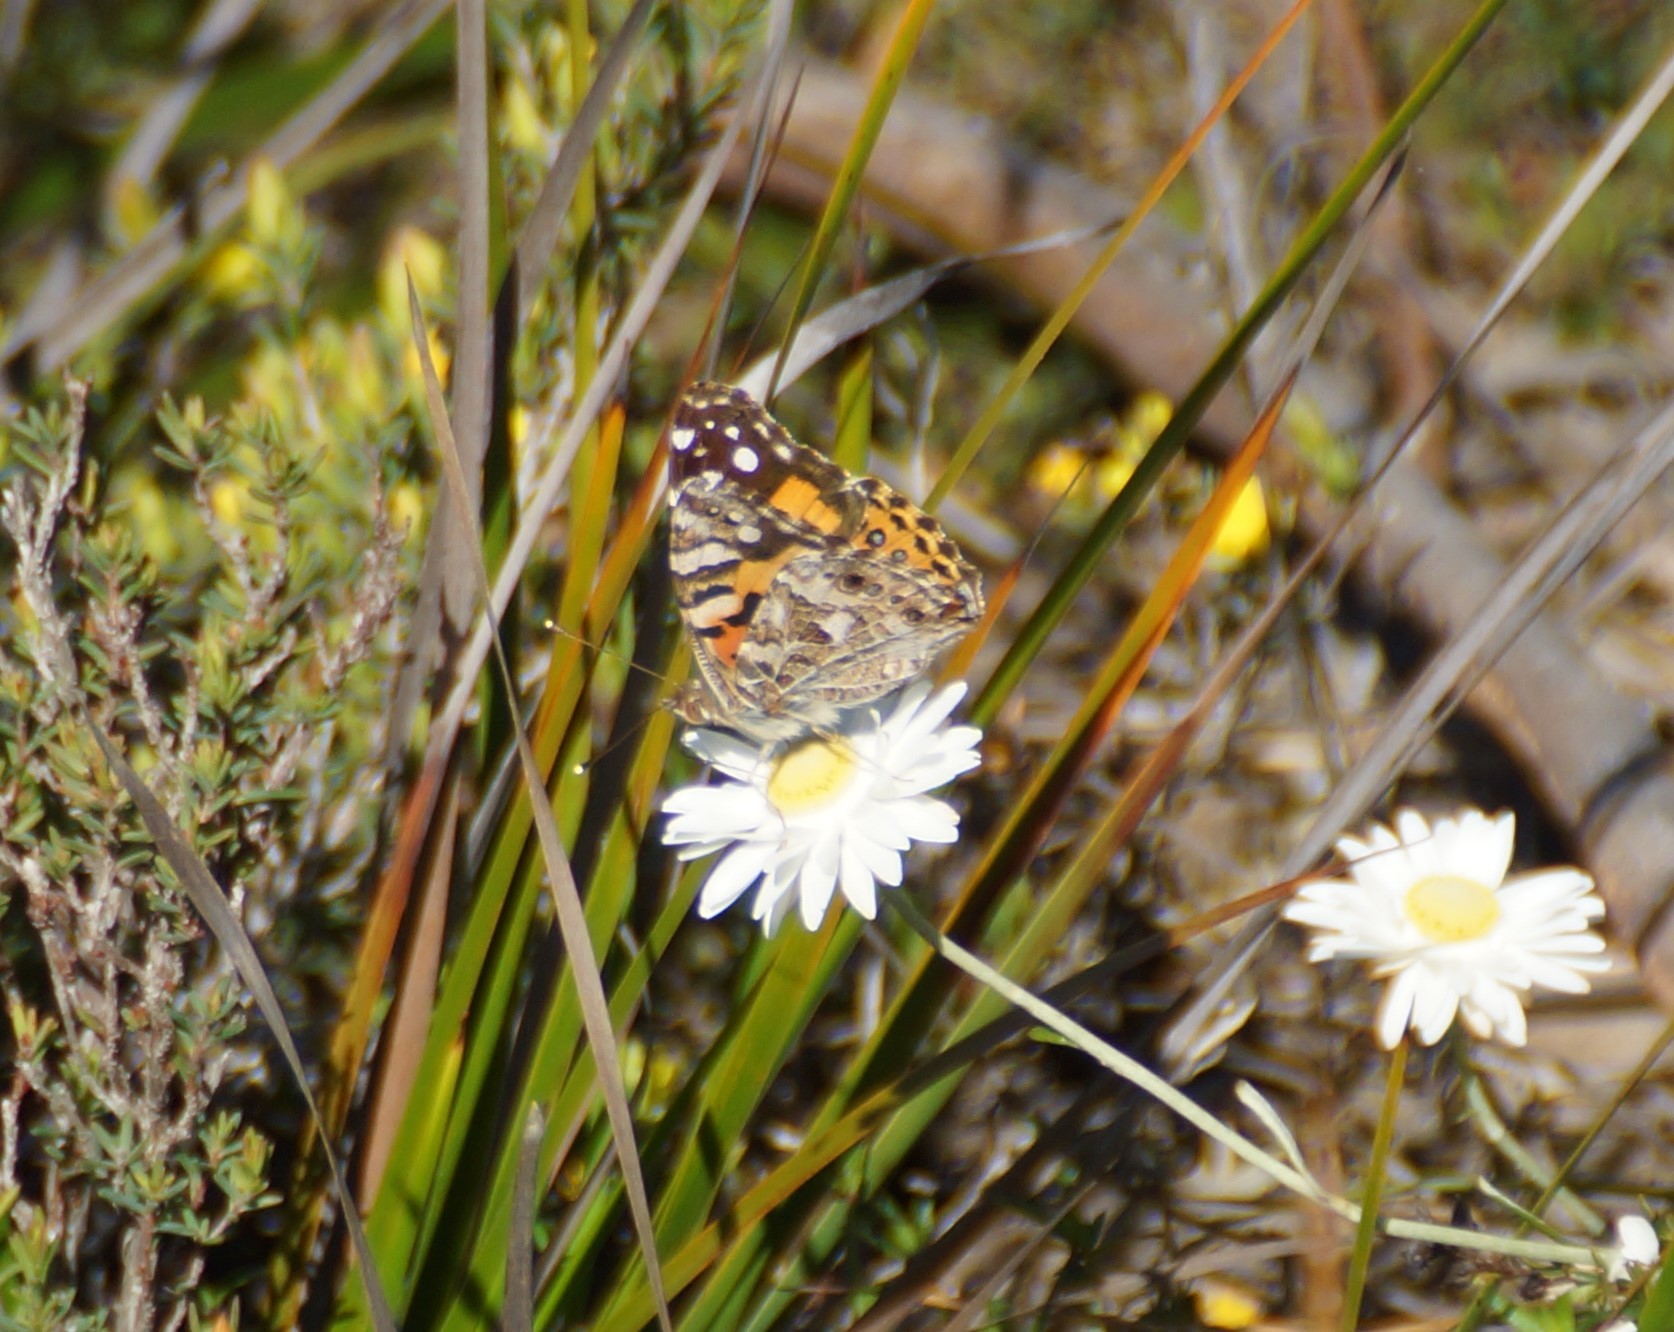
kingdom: Animalia
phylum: Arthropoda
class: Insecta
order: Lepidoptera
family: Nymphalidae
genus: Vanessa
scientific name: Vanessa kershawi
